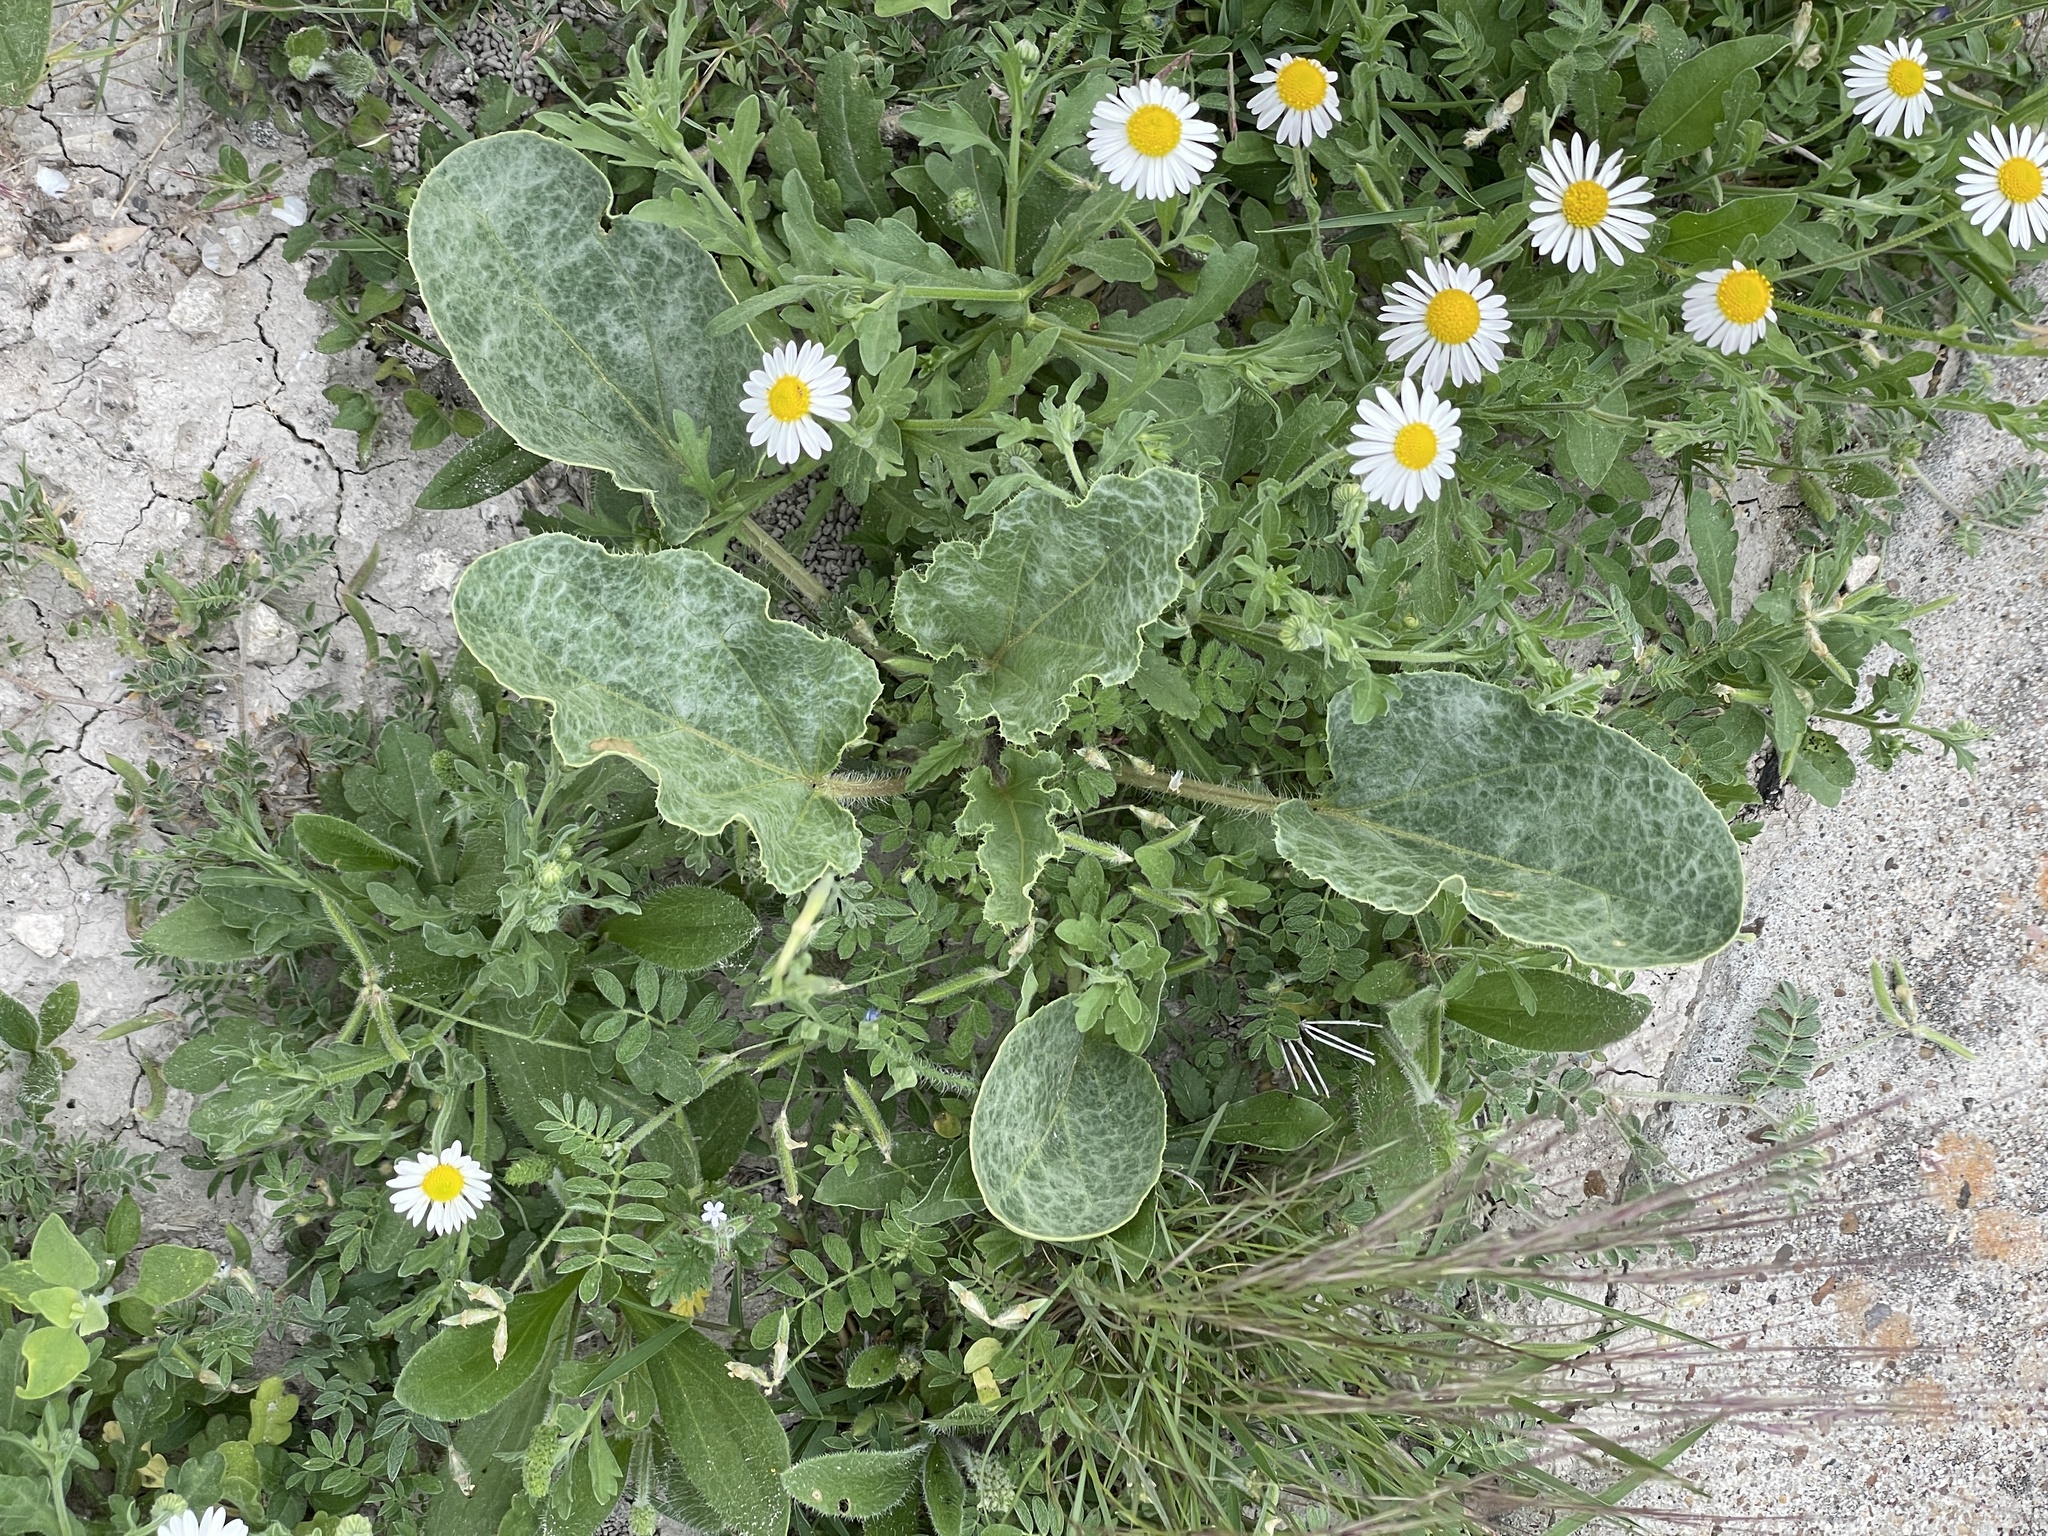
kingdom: Plantae
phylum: Tracheophyta
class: Magnoliopsida
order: Caryophyllales
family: Nyctaginaceae
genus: Nyctaginia
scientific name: Nyctaginia capitata
